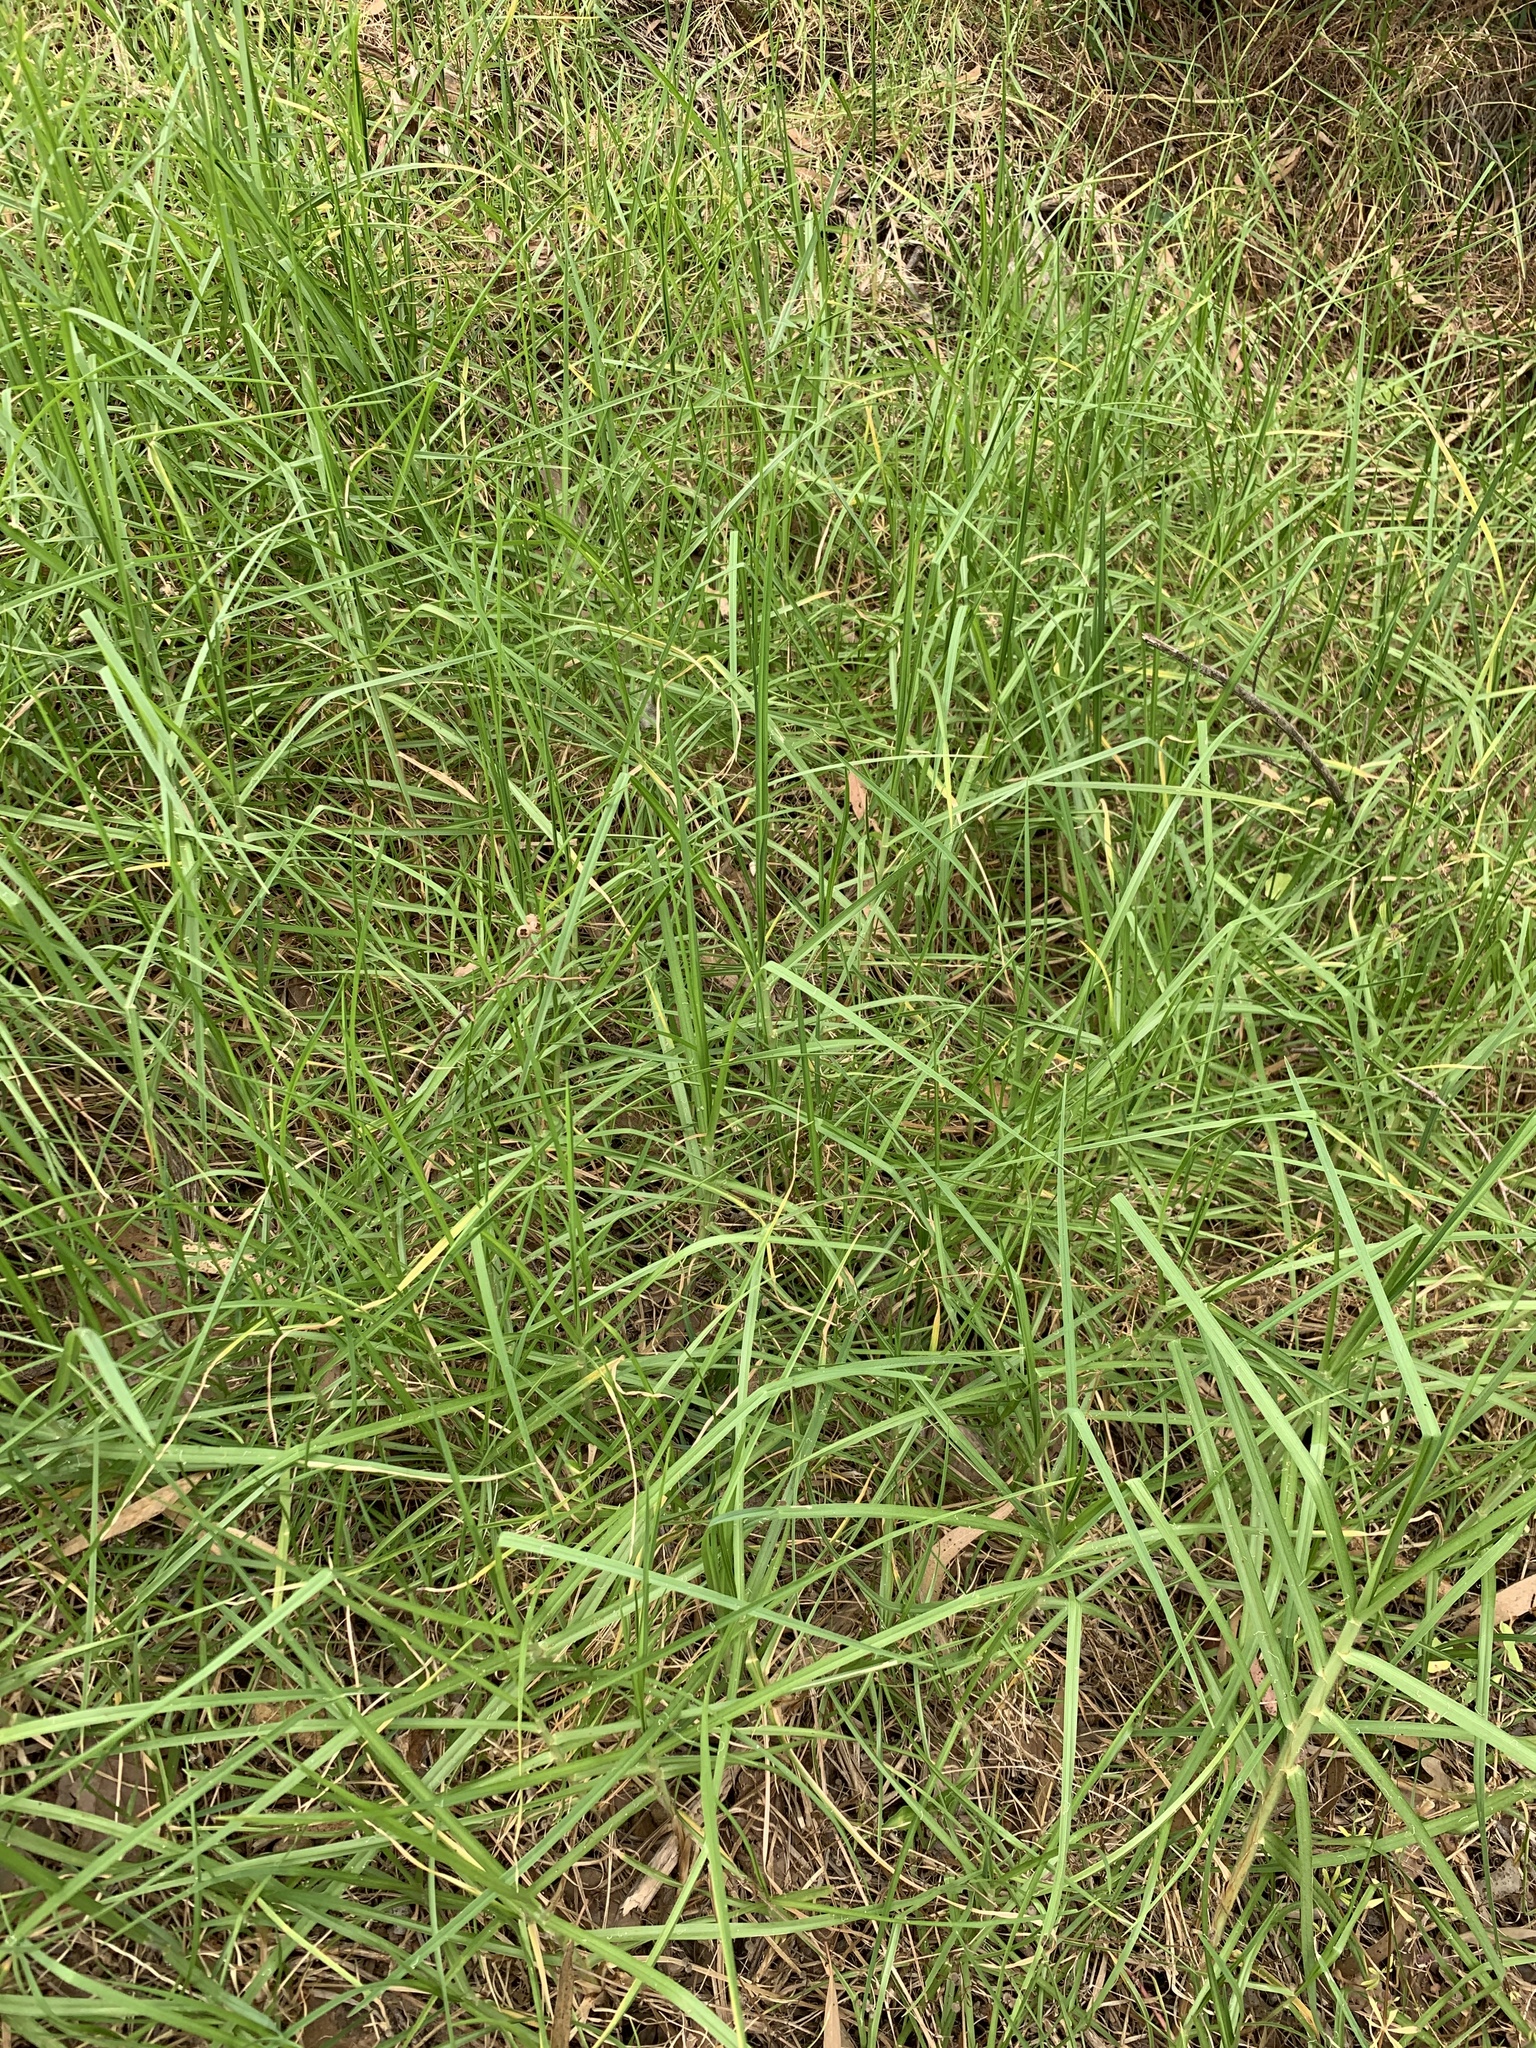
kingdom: Plantae
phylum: Tracheophyta
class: Liliopsida
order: Poales
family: Poaceae
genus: Cenchrus
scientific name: Cenchrus clandestinus
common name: Kikuyugrass
